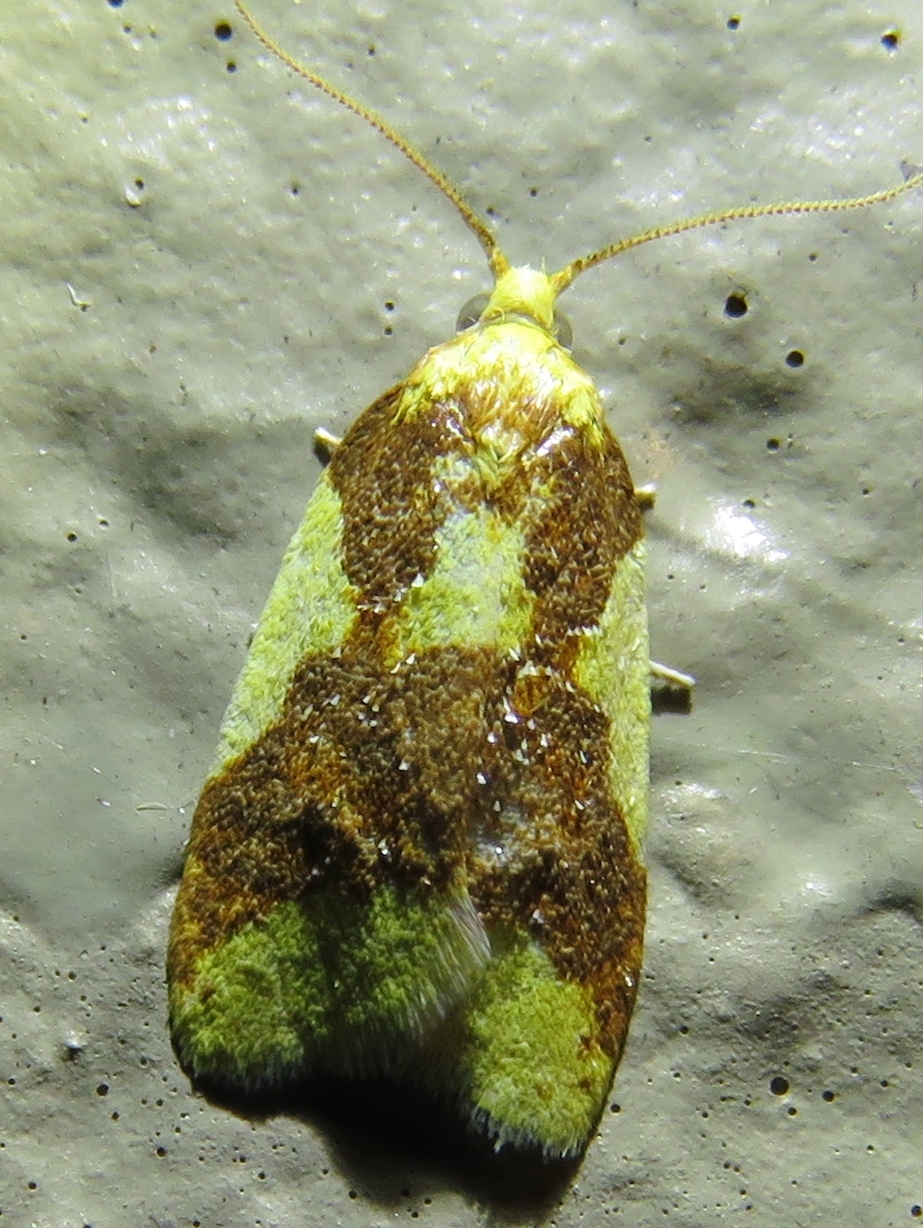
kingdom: Animalia
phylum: Arthropoda
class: Insecta
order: Lepidoptera
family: Tortricidae
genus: Sparganothis
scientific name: Sparganothis pulcherrimana
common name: Beautiful sparganothis
